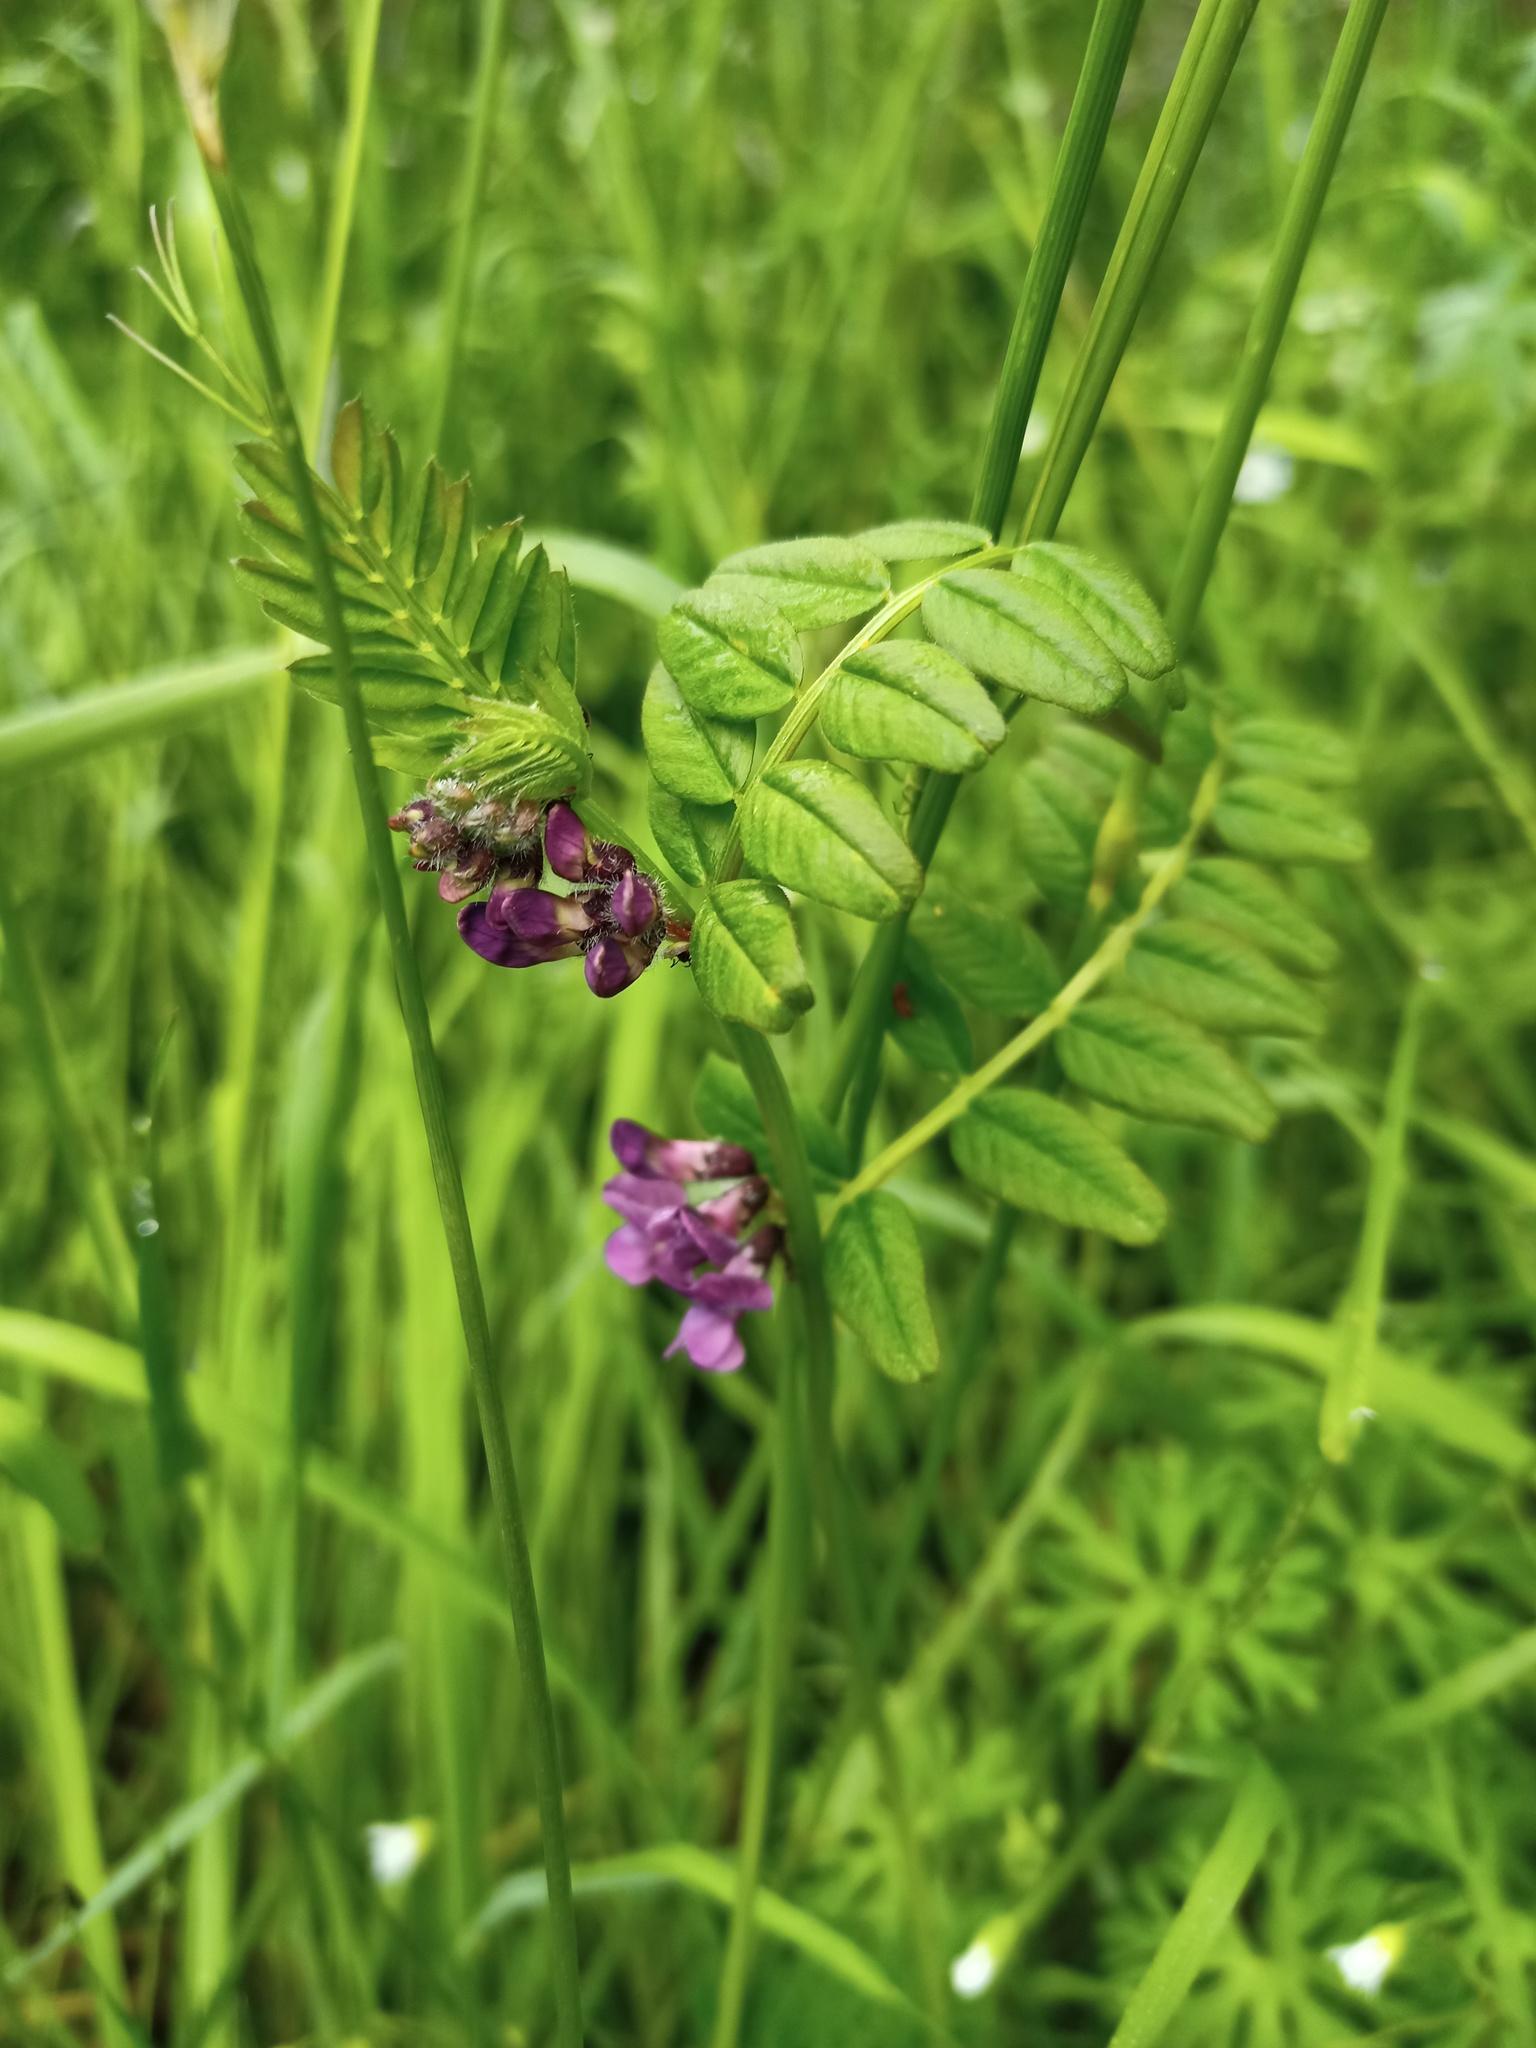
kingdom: Plantae
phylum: Tracheophyta
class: Magnoliopsida
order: Fabales
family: Fabaceae
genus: Vicia
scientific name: Vicia sepium
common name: Bush vetch
